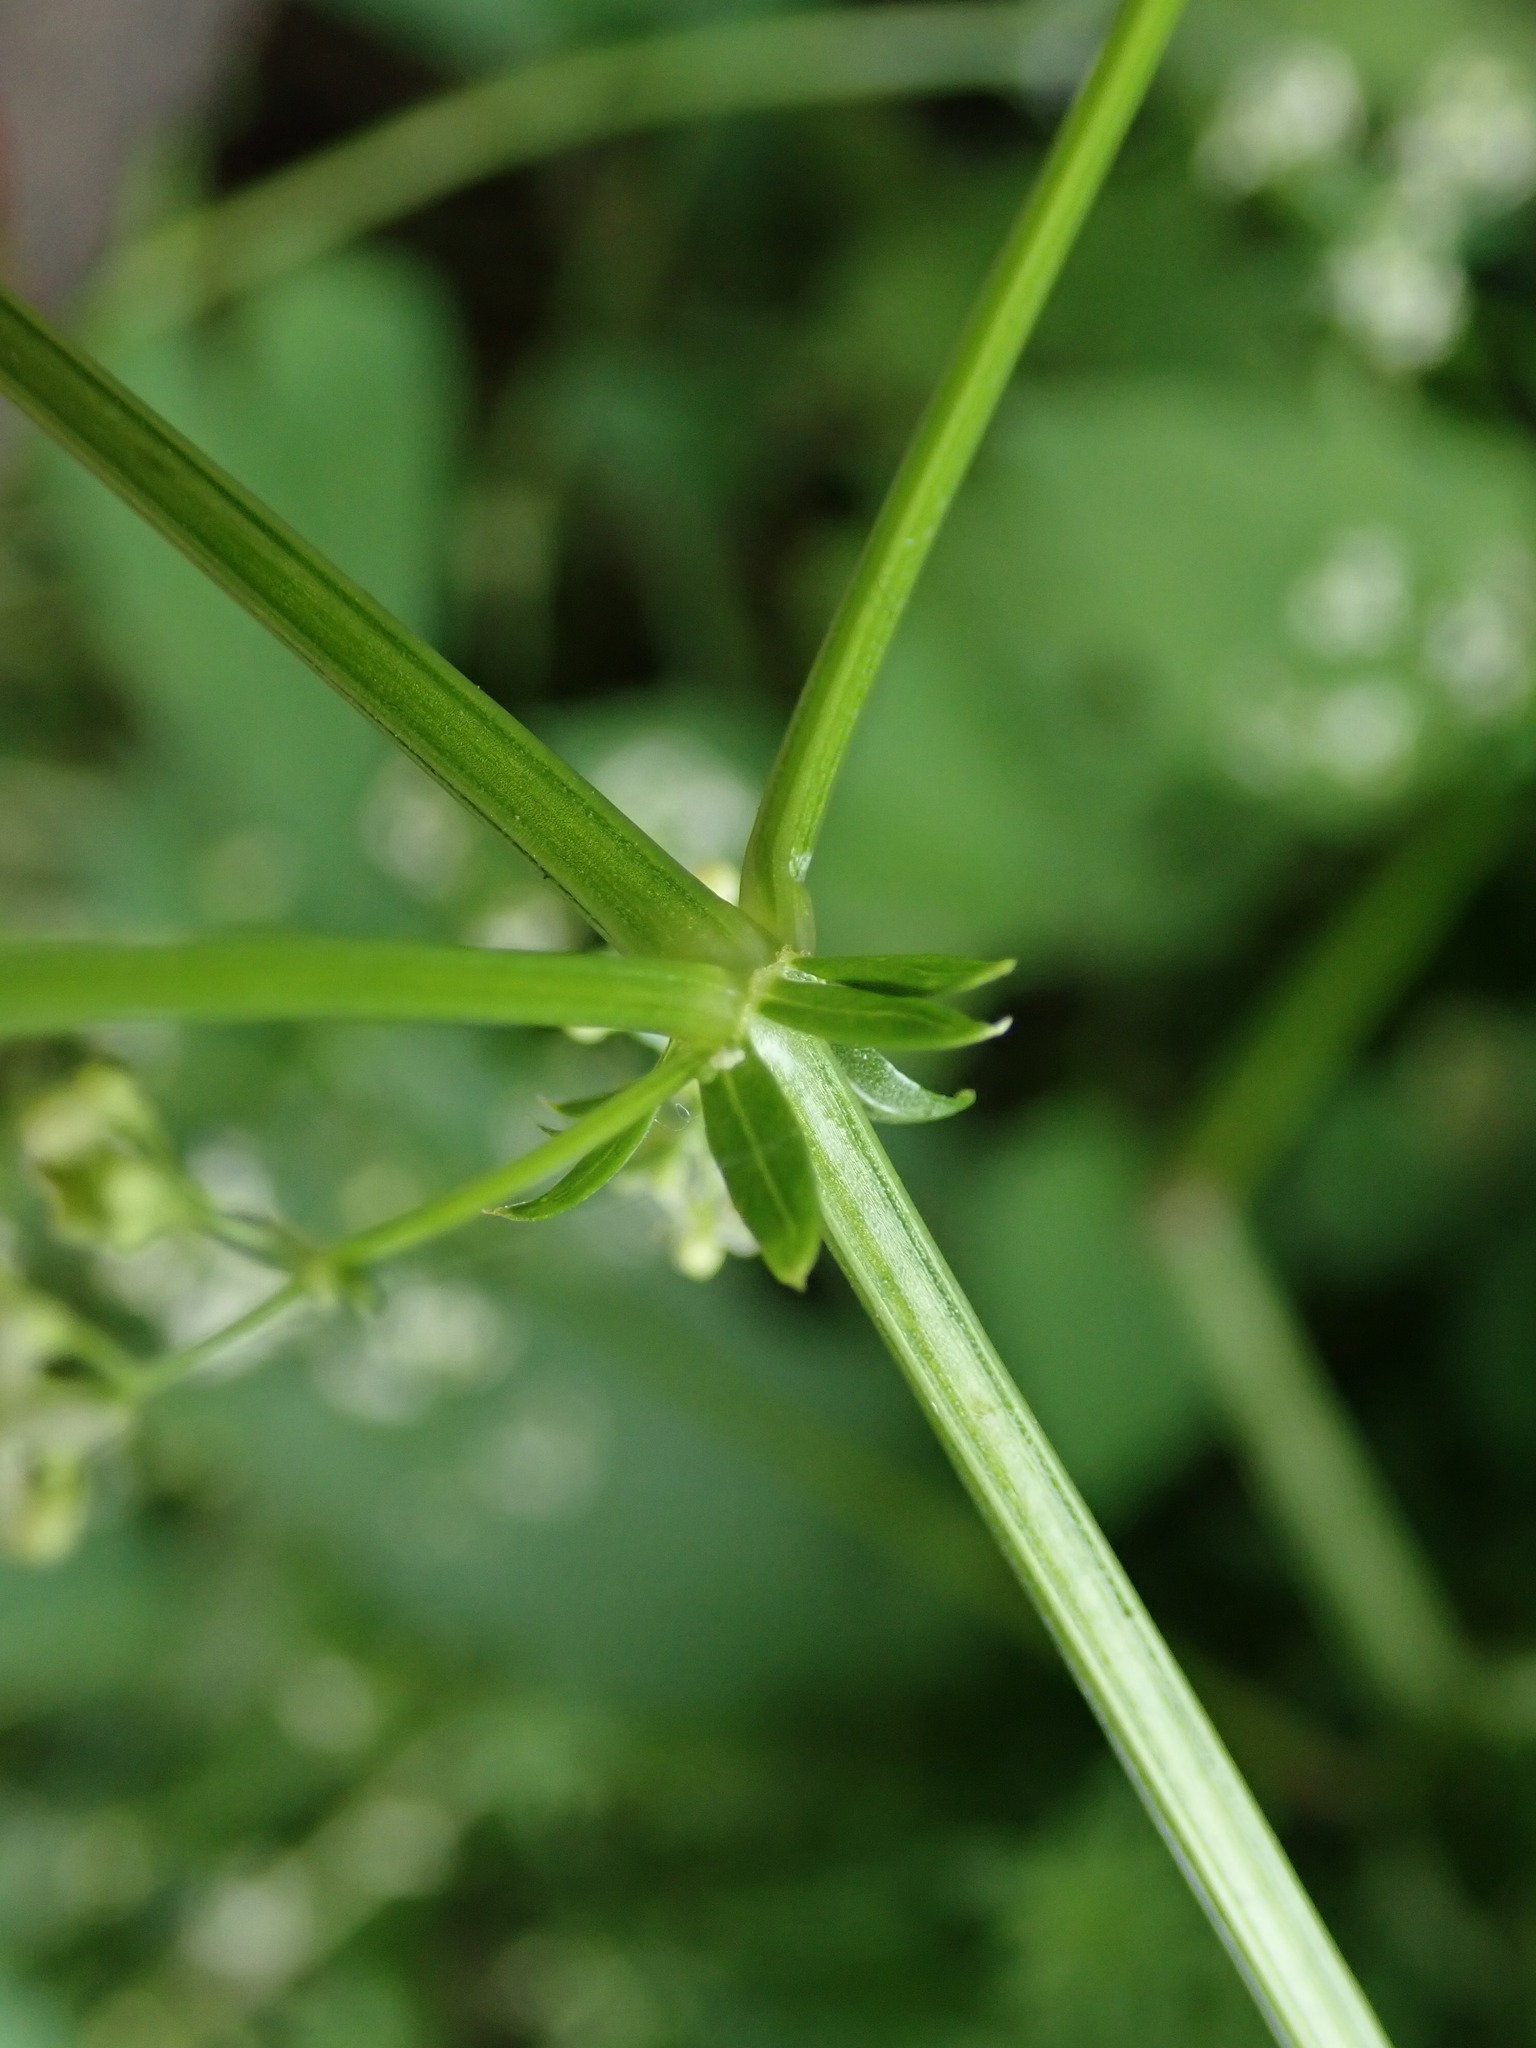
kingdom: Plantae
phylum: Tracheophyta
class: Magnoliopsida
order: Gentianales
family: Rubiaceae
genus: Galium
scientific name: Galium album
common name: White bedstraw
